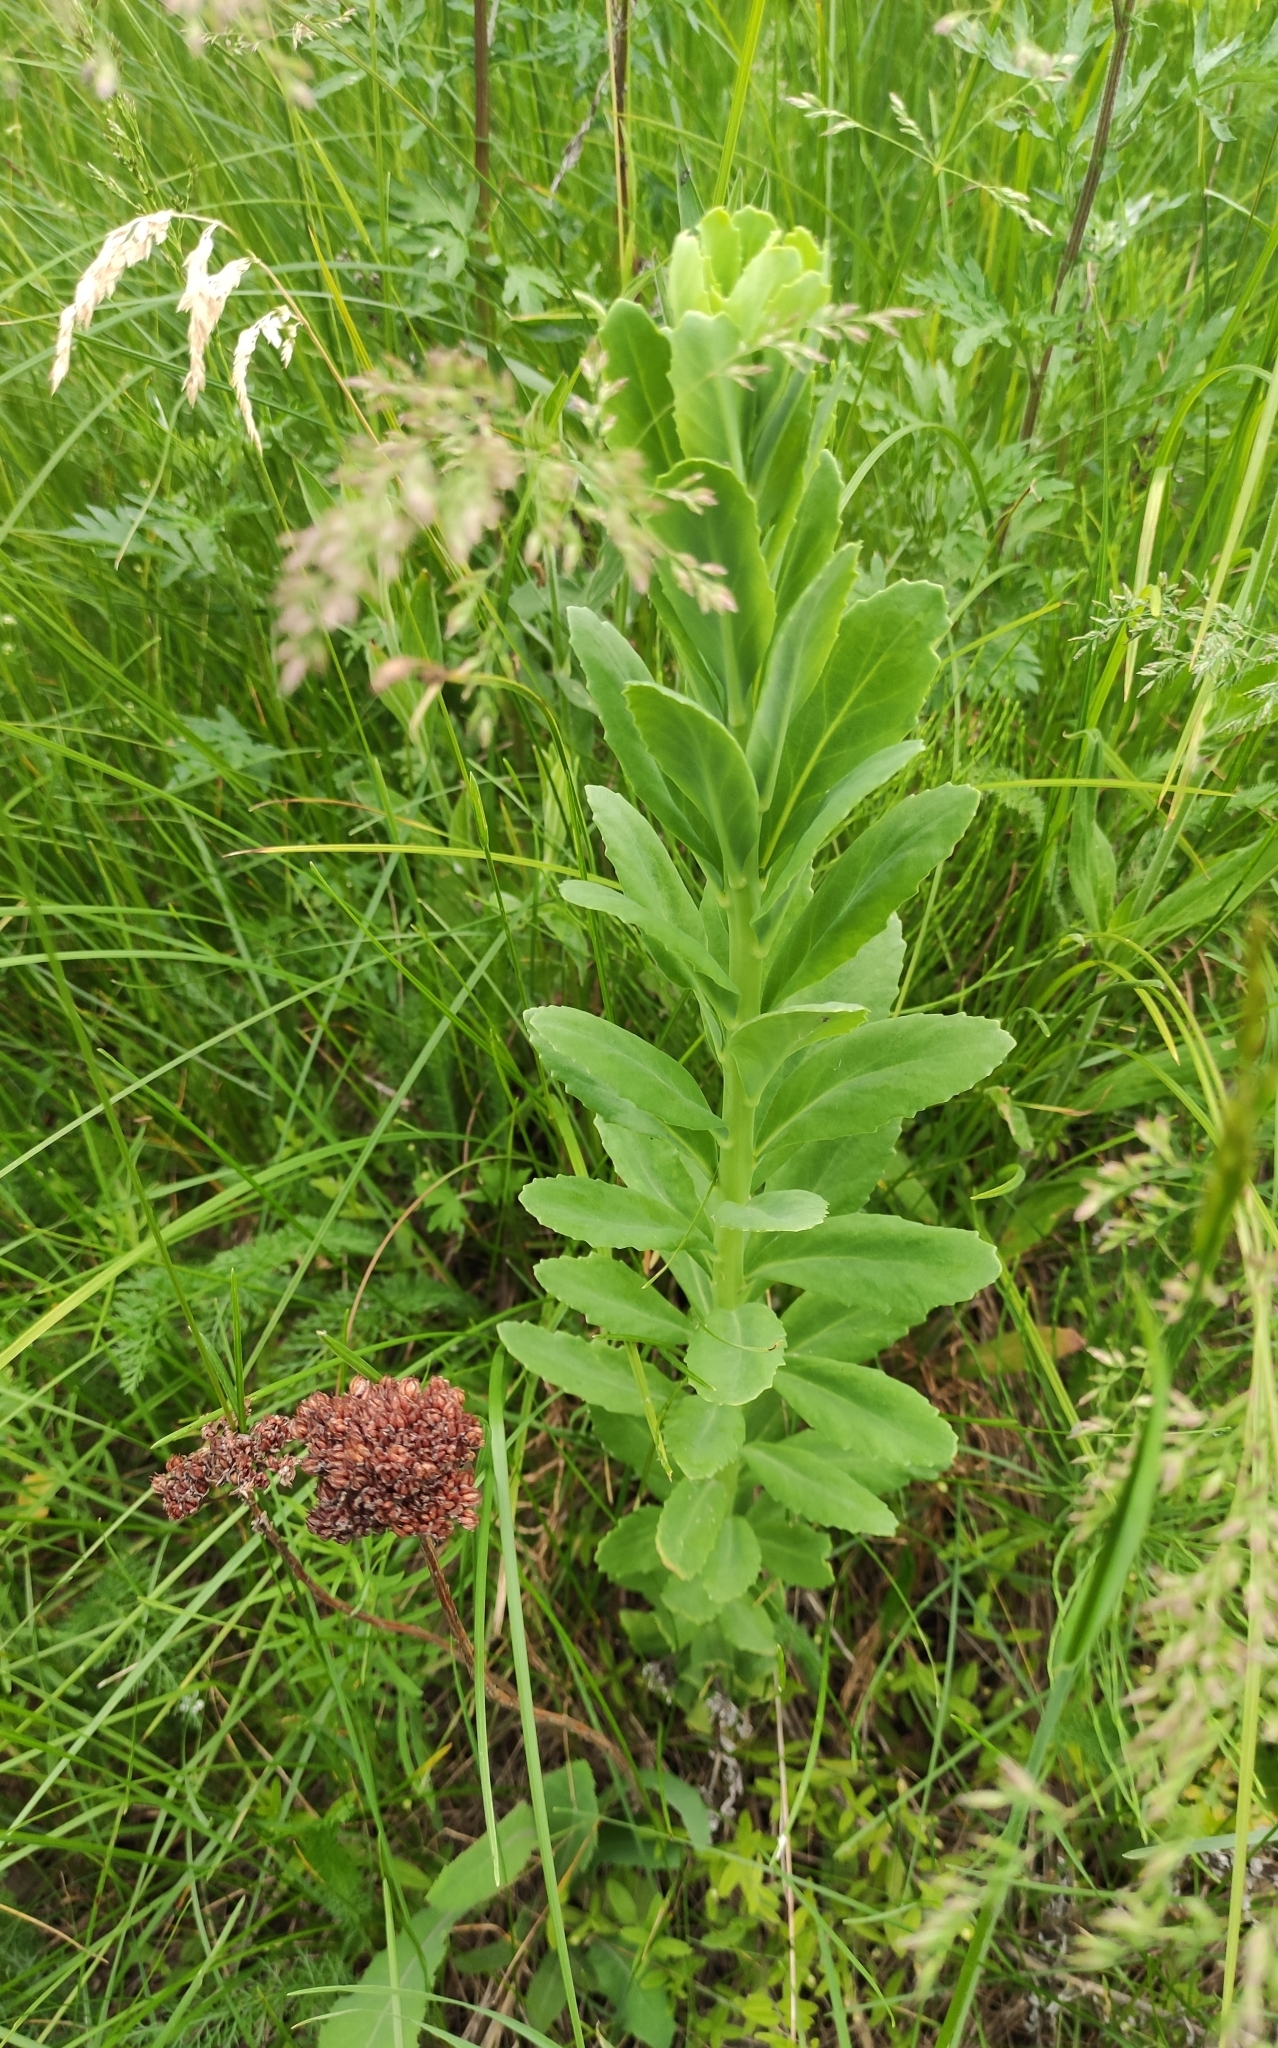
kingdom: Plantae
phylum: Tracheophyta
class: Magnoliopsida
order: Saxifragales
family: Crassulaceae
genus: Hylotelephium
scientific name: Hylotelephium telephium
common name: Live-forever
